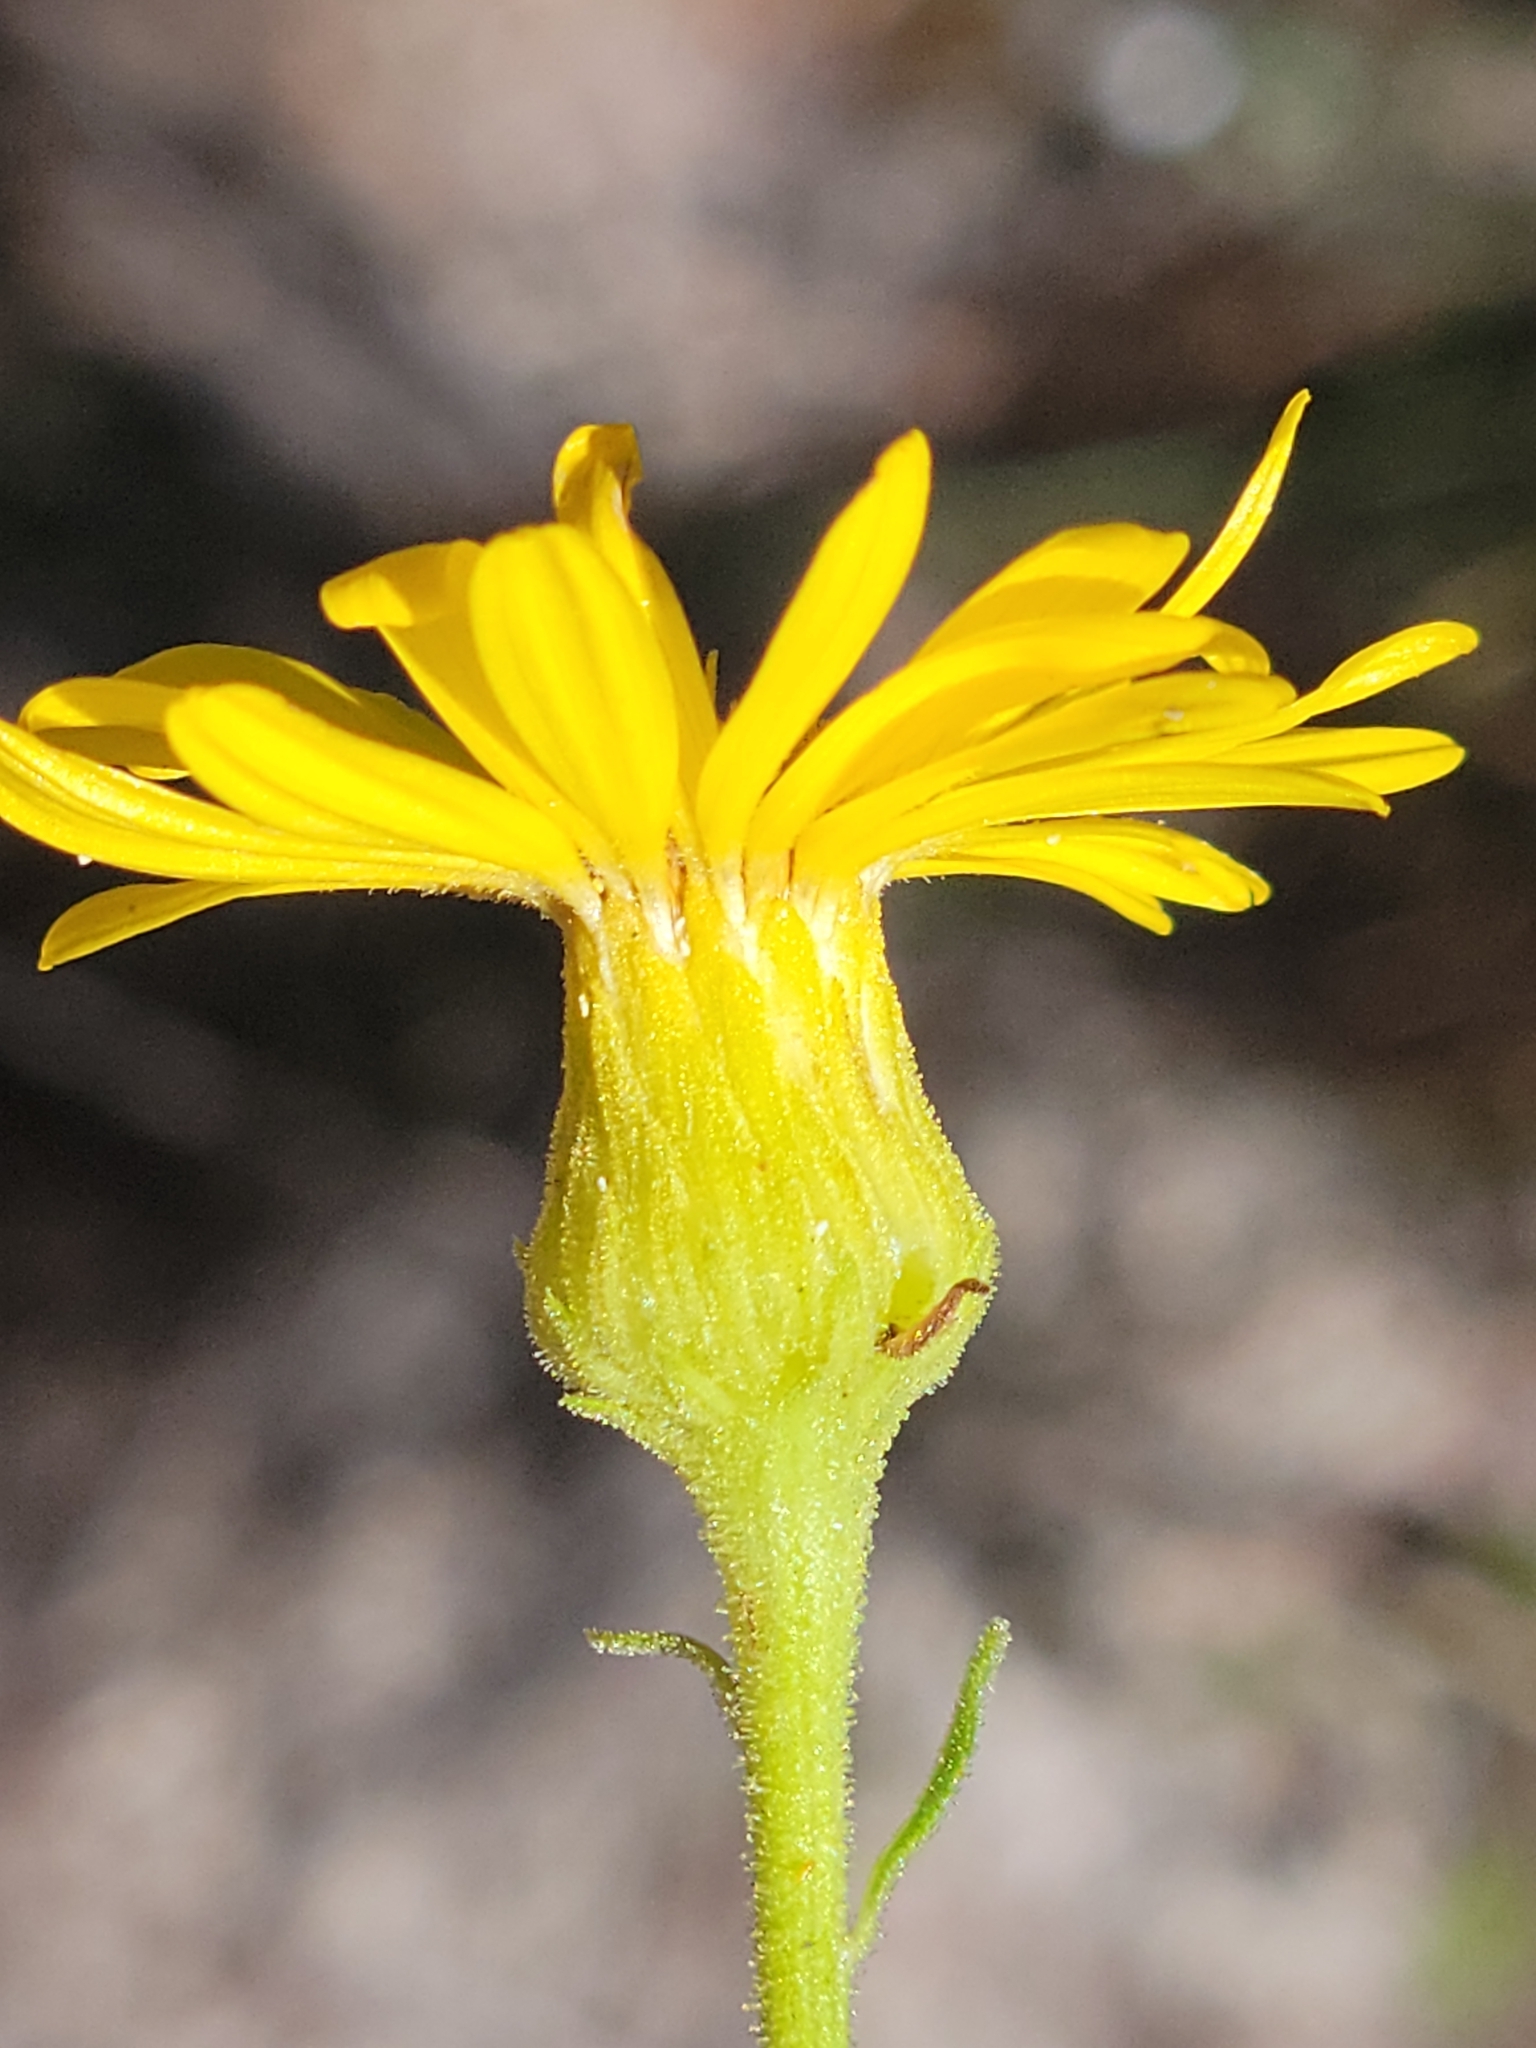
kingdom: Plantae
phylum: Tracheophyta
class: Magnoliopsida
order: Asterales
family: Asteraceae
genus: Chrysopsis
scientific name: Chrysopsis scabrella
